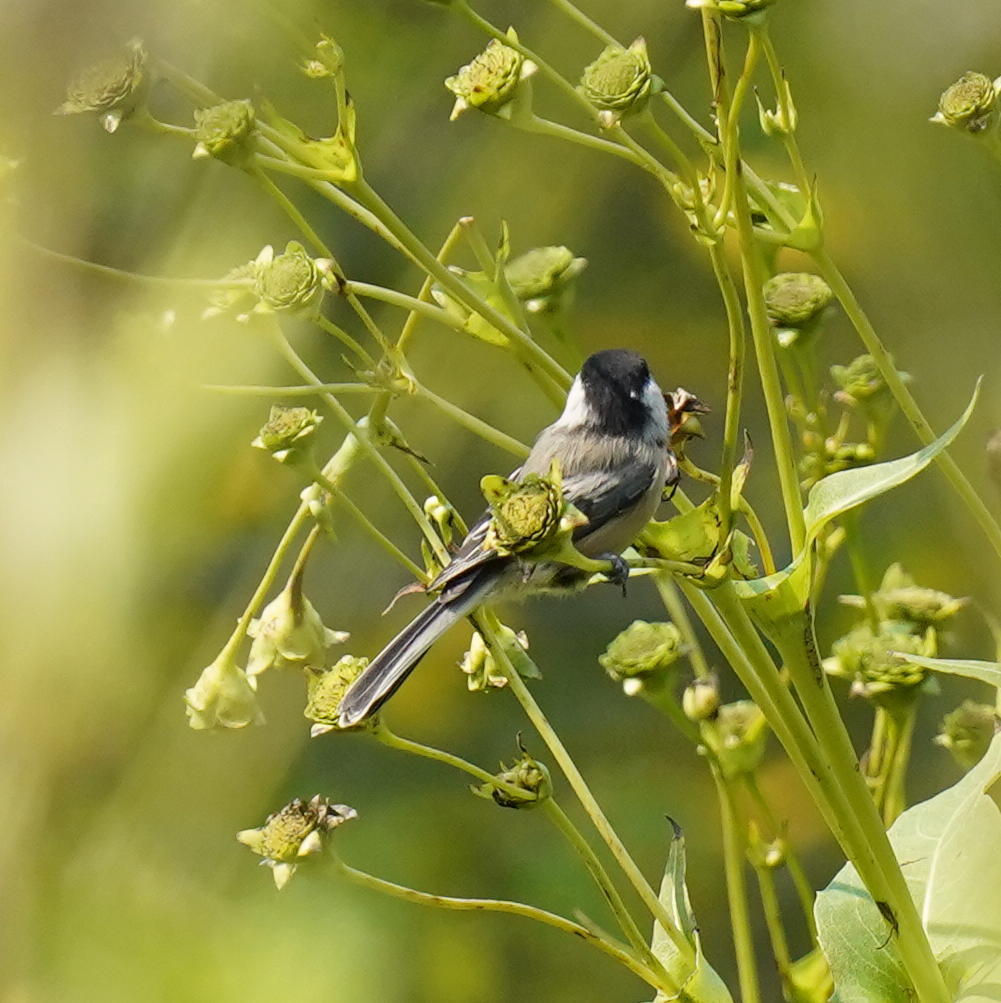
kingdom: Animalia
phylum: Chordata
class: Aves
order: Passeriformes
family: Paridae
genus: Poecile
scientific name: Poecile atricapillus
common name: Black-capped chickadee
